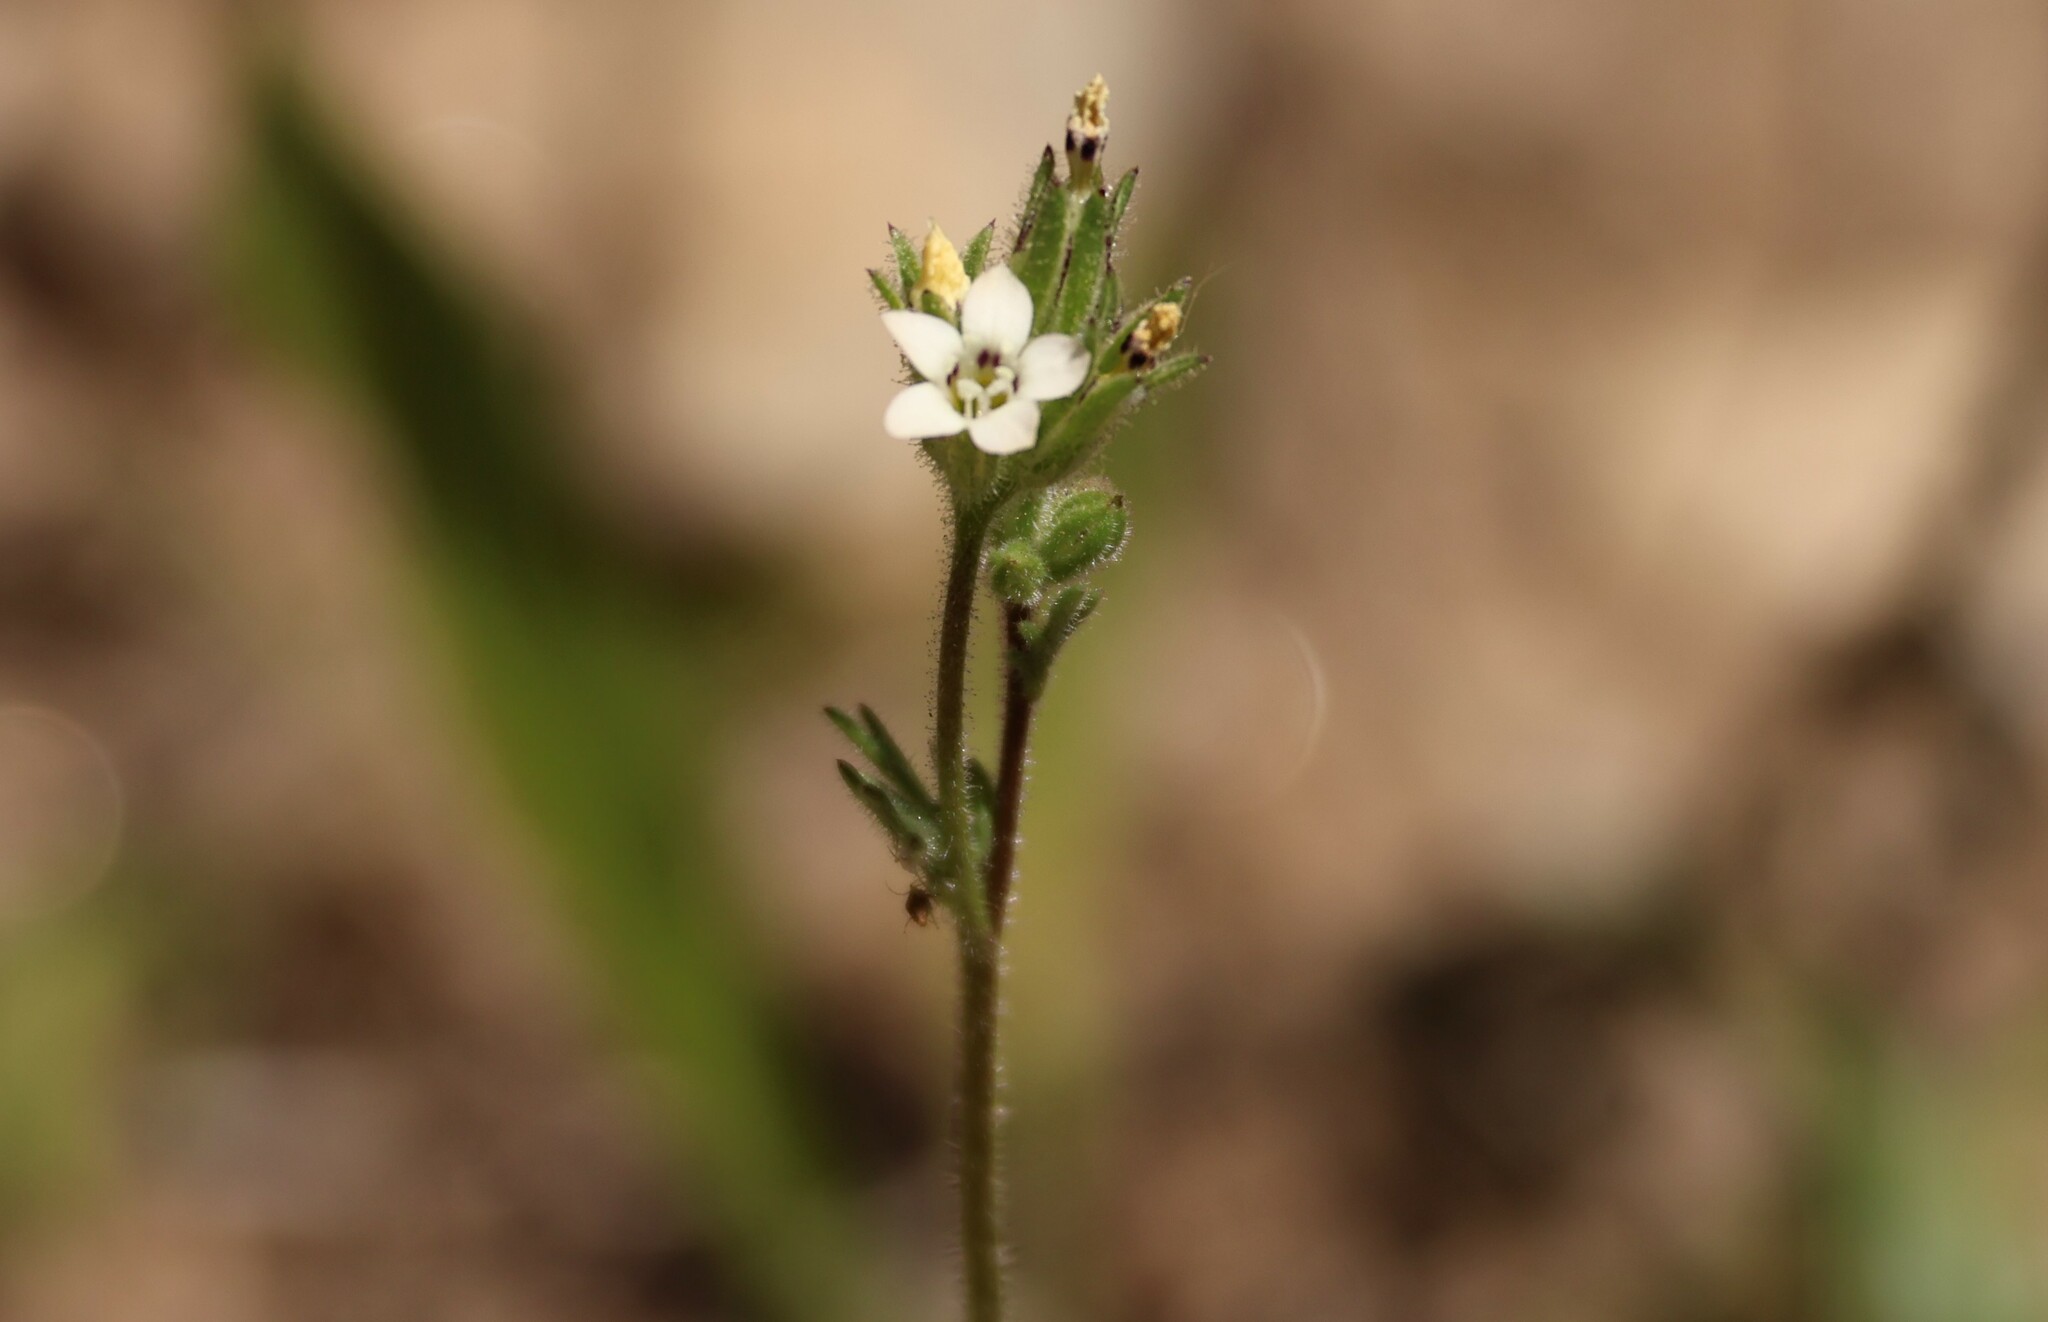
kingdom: Plantae
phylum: Tracheophyta
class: Magnoliopsida
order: Ericales
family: Polemoniaceae
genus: Gilia
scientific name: Gilia clivorum
